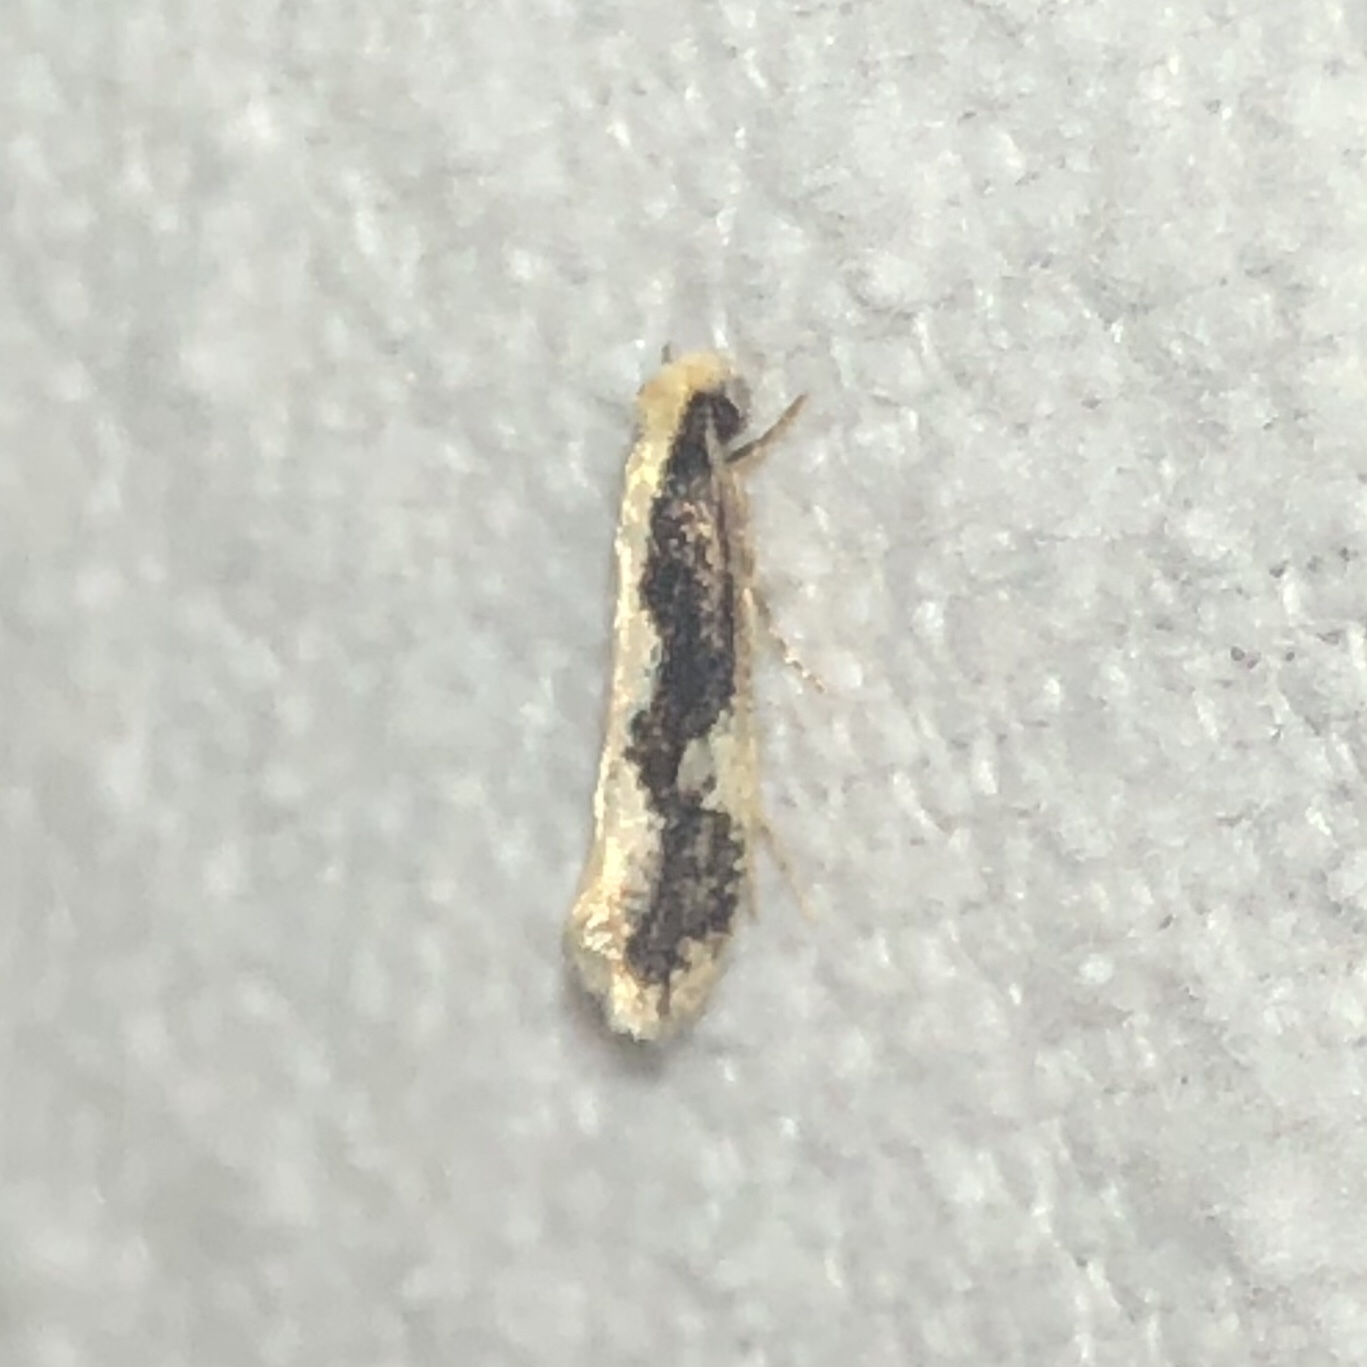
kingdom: Animalia
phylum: Arthropoda
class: Insecta
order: Lepidoptera
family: Tineidae
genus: Monopis
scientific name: Monopis dorsistrigella
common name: Skunkback monopis moth
